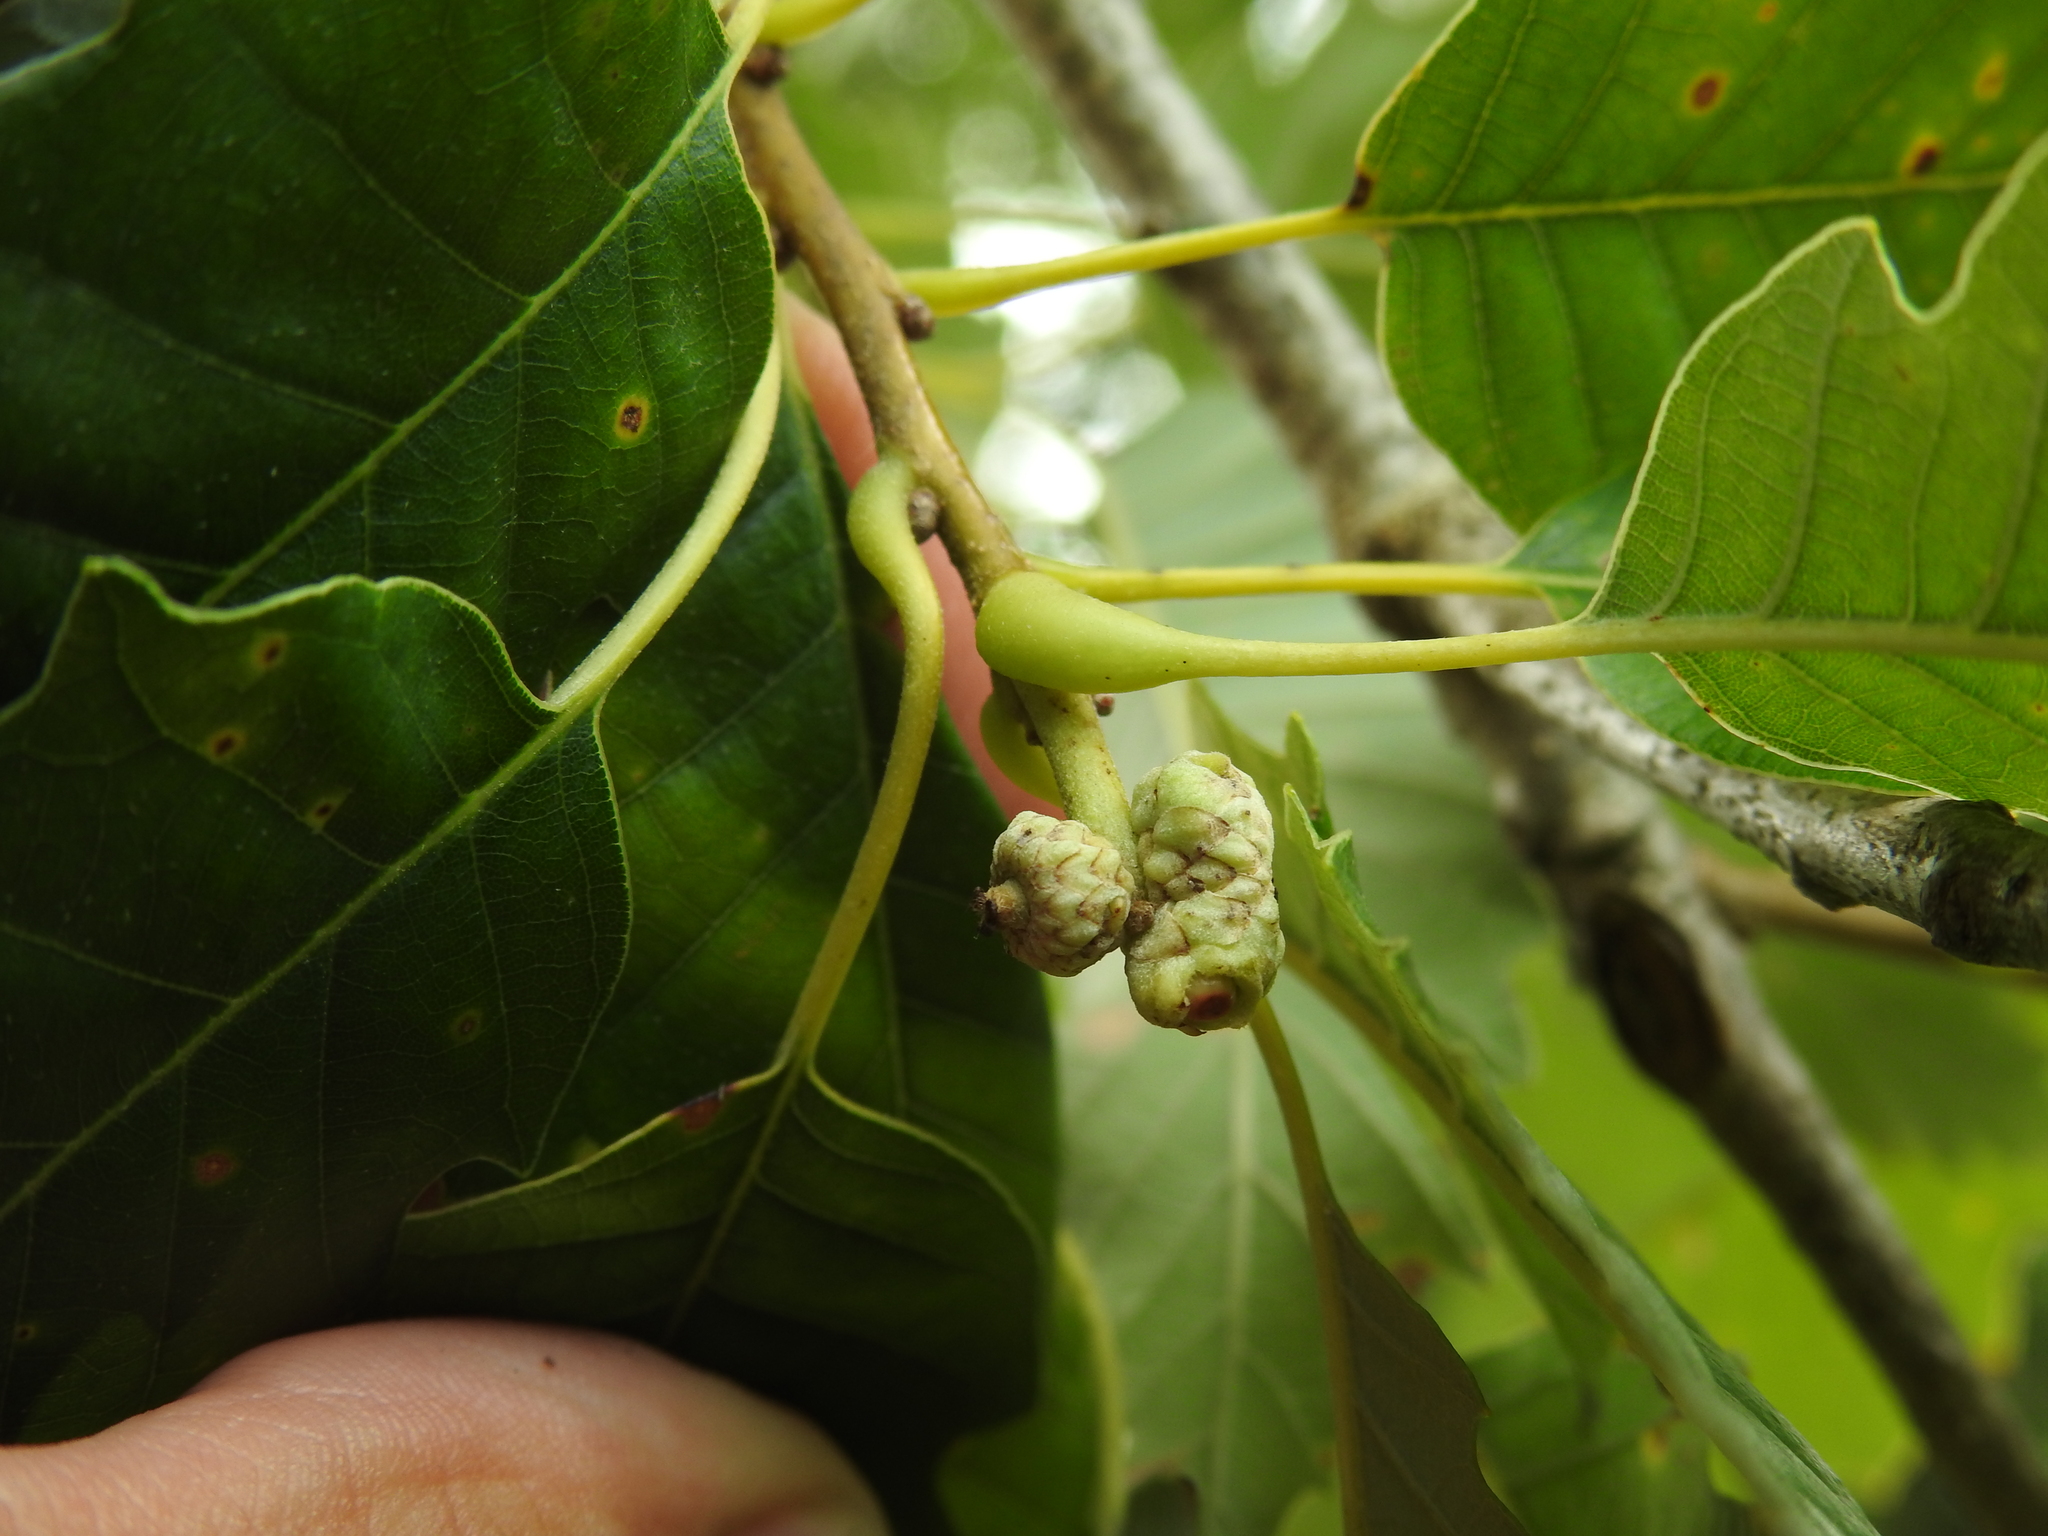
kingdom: Animalia
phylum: Arthropoda
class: Insecta
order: Hymenoptera
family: Cynipidae
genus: Callirhytis
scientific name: Callirhytis glandium
